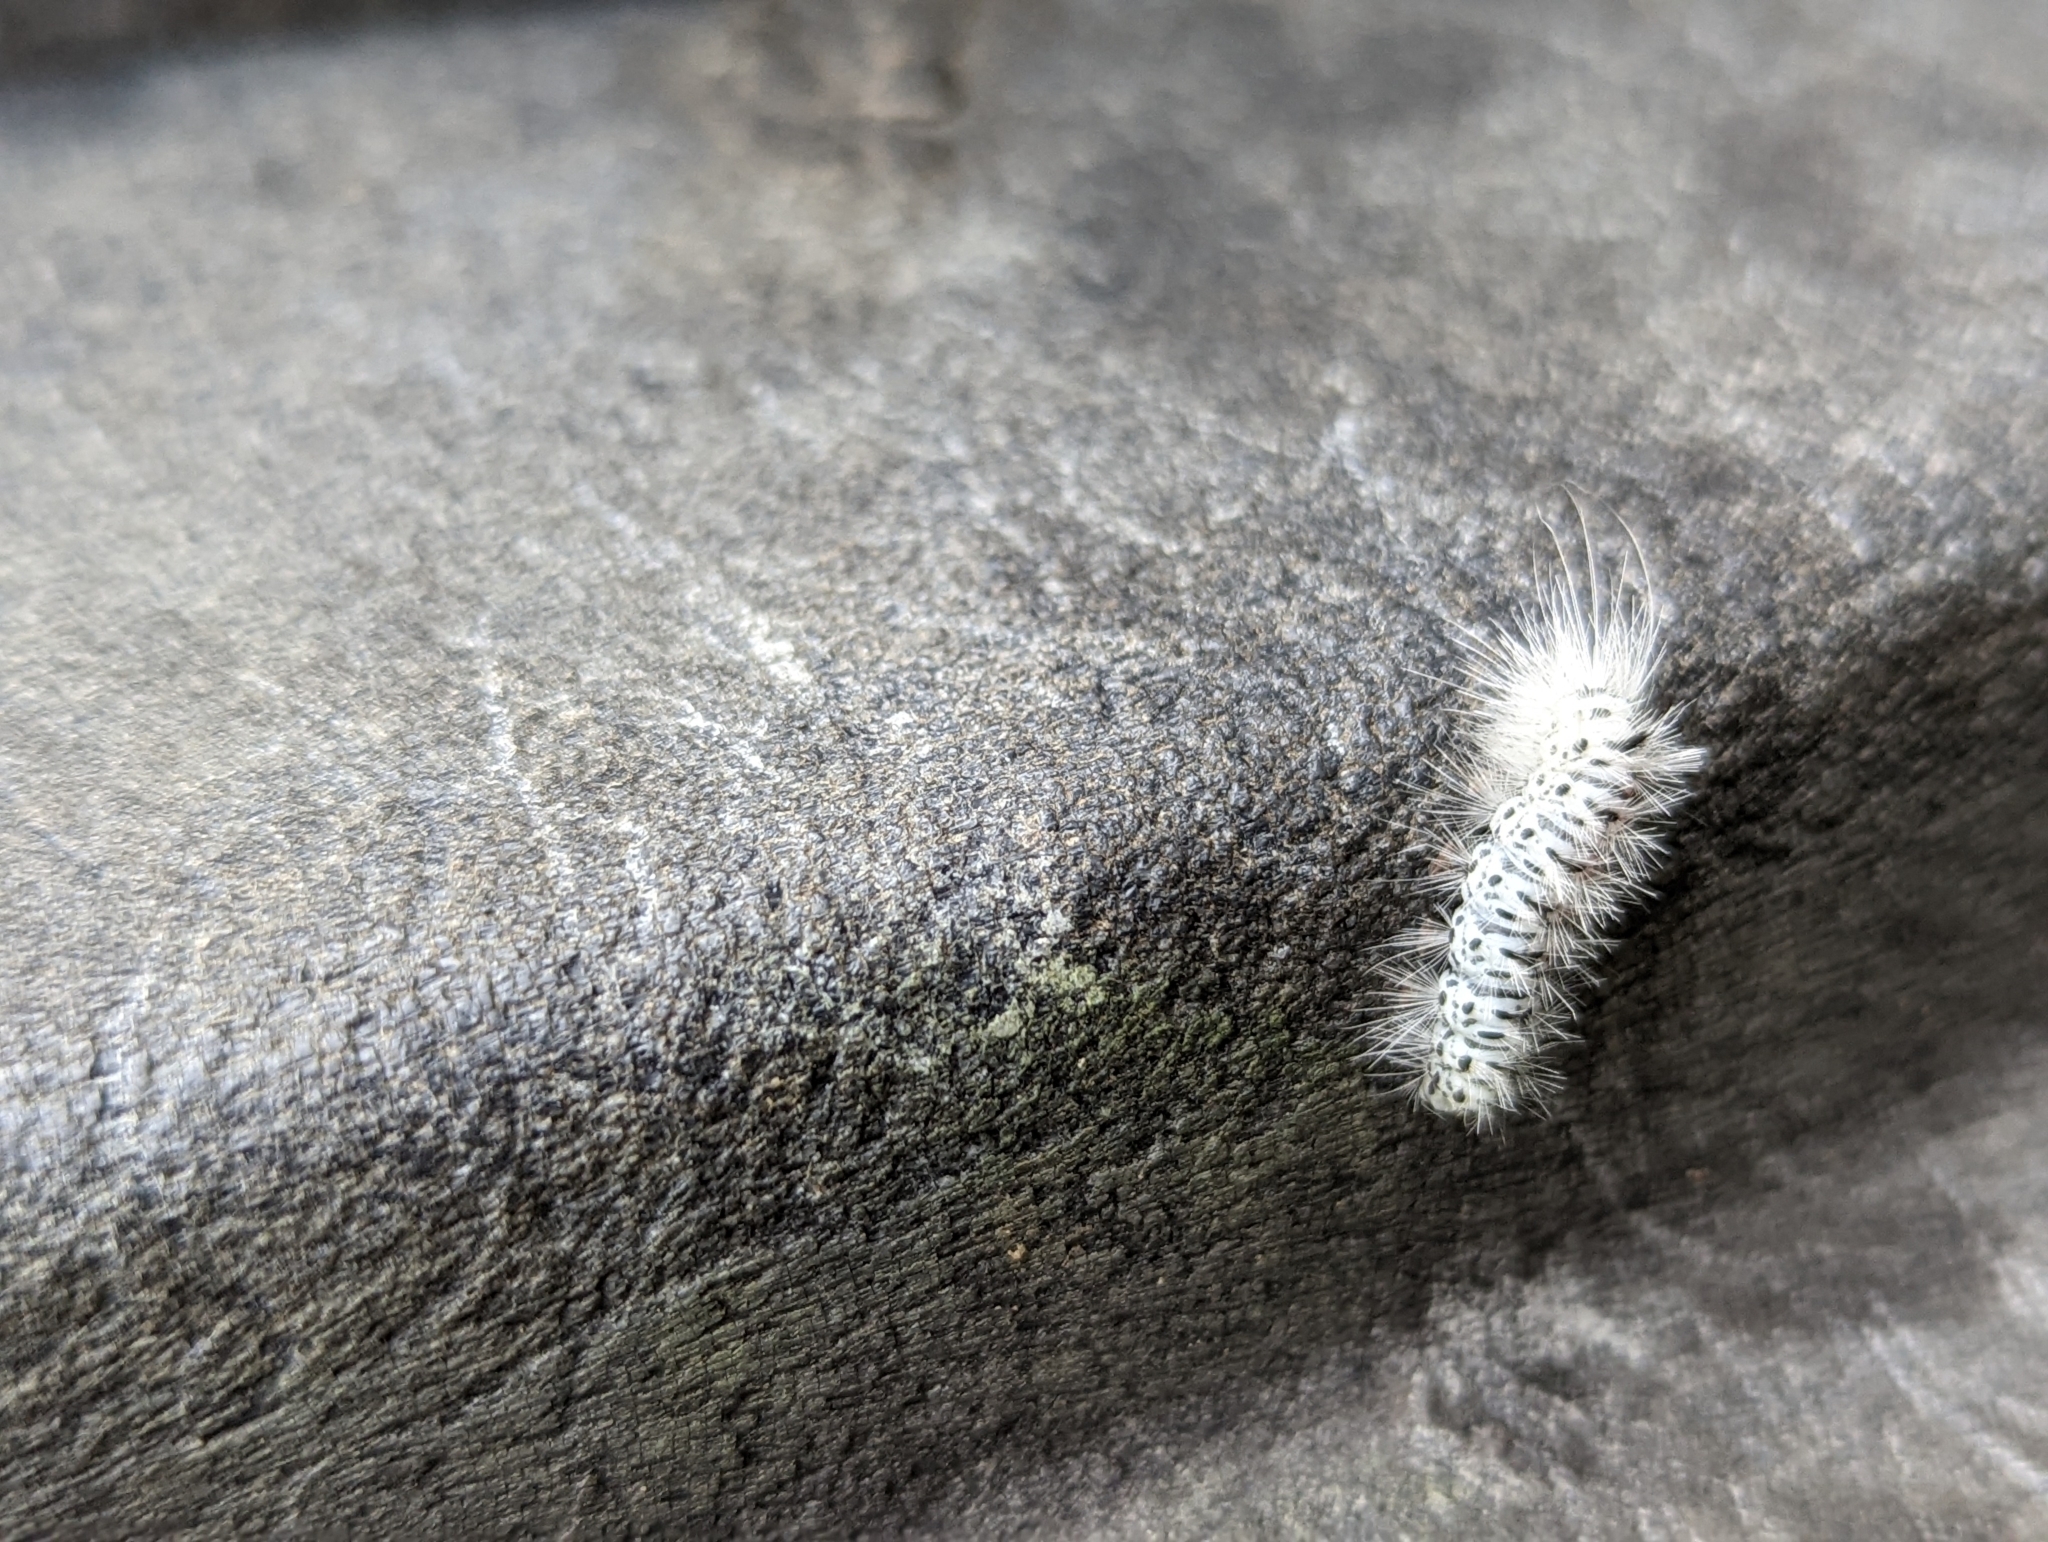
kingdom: Animalia
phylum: Arthropoda
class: Insecta
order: Lepidoptera
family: Erebidae
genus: Lophocampa
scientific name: Lophocampa caryae
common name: Hickory tussock moth
